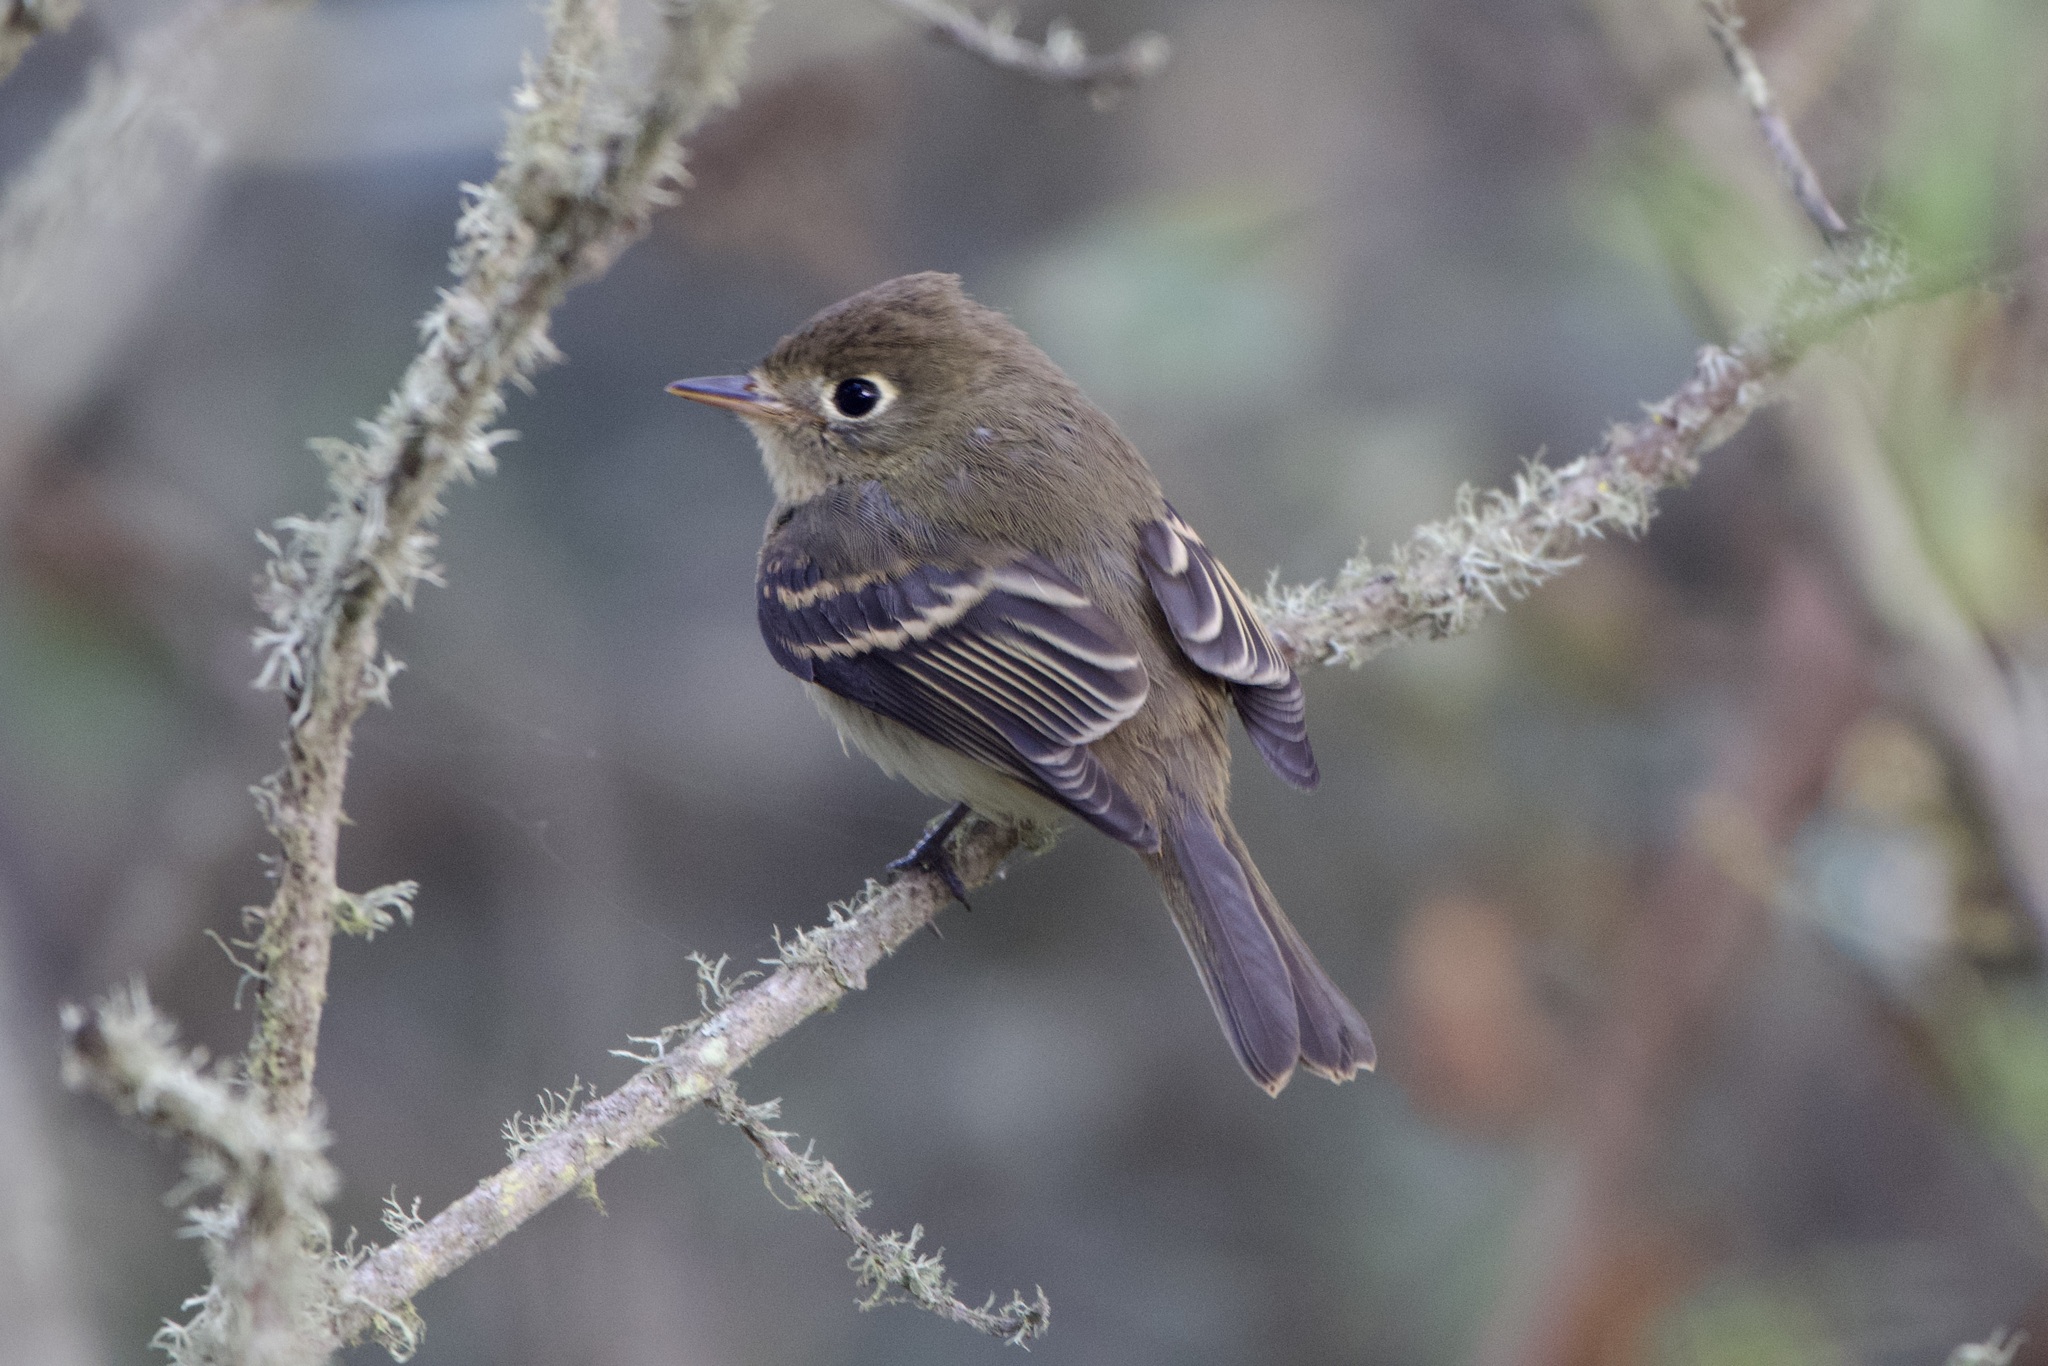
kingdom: Animalia
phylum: Chordata
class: Aves
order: Passeriformes
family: Tyrannidae
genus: Empidonax
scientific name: Empidonax difficilis
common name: Pacific-slope flycatcher
